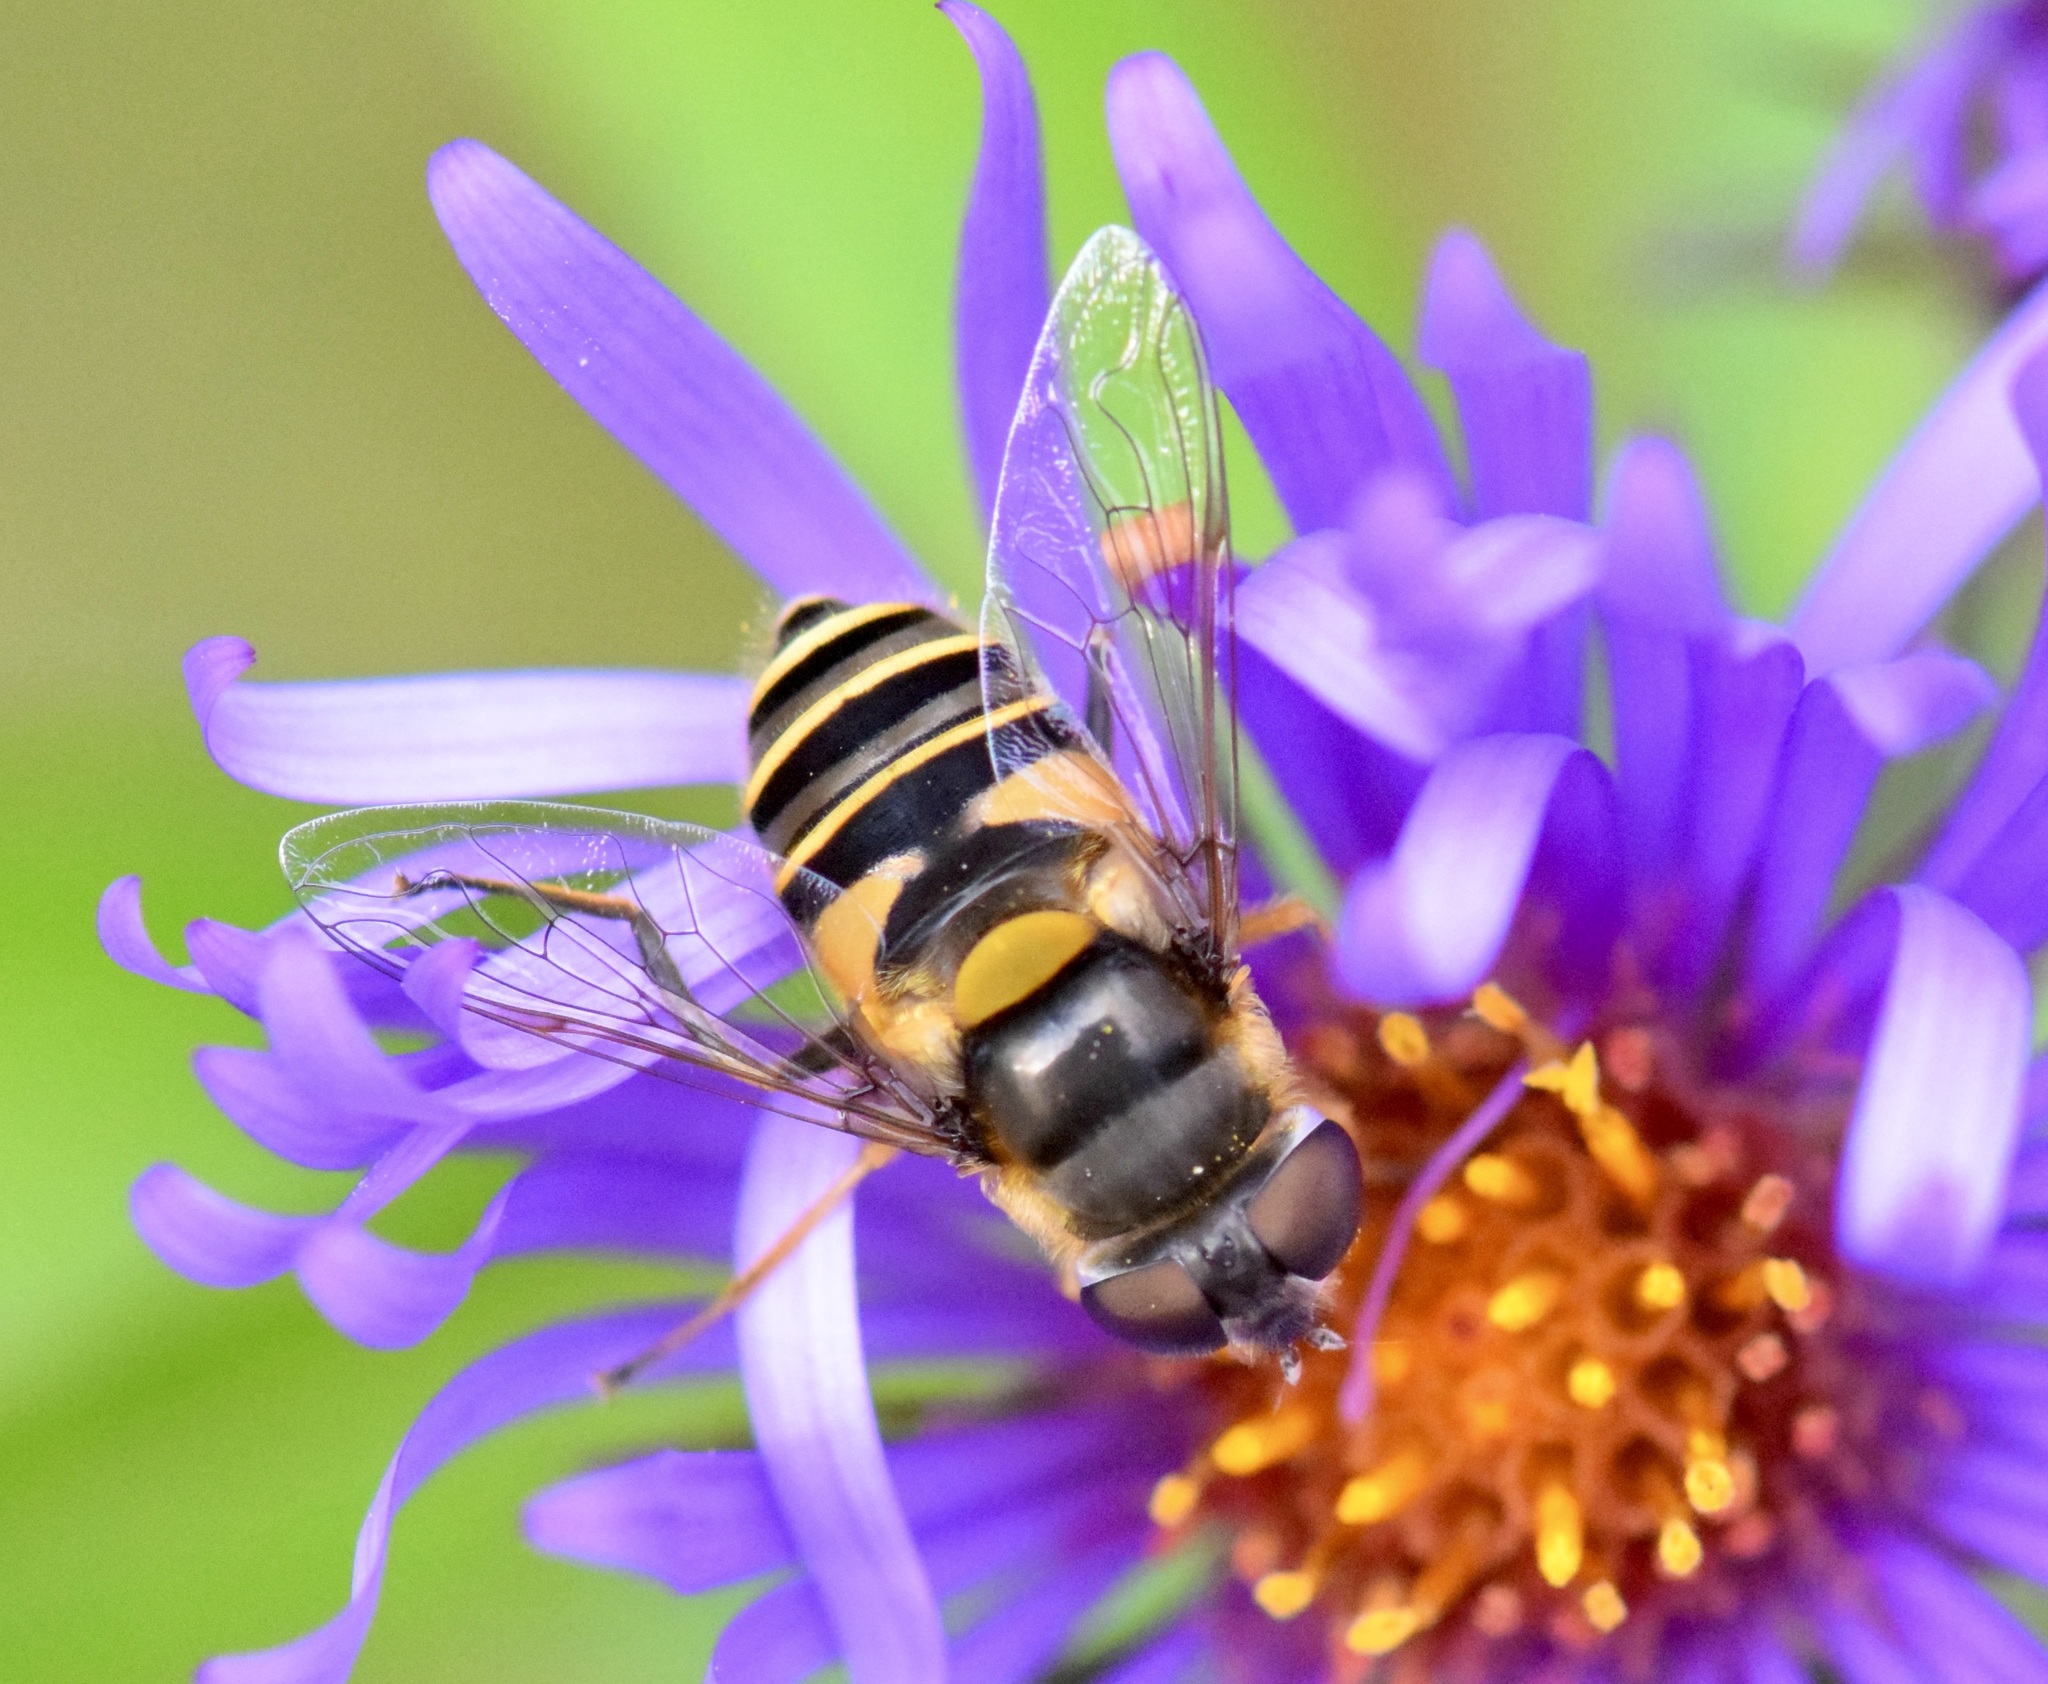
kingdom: Animalia
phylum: Arthropoda
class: Insecta
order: Diptera
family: Syrphidae
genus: Eristalis
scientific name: Eristalis transversa
